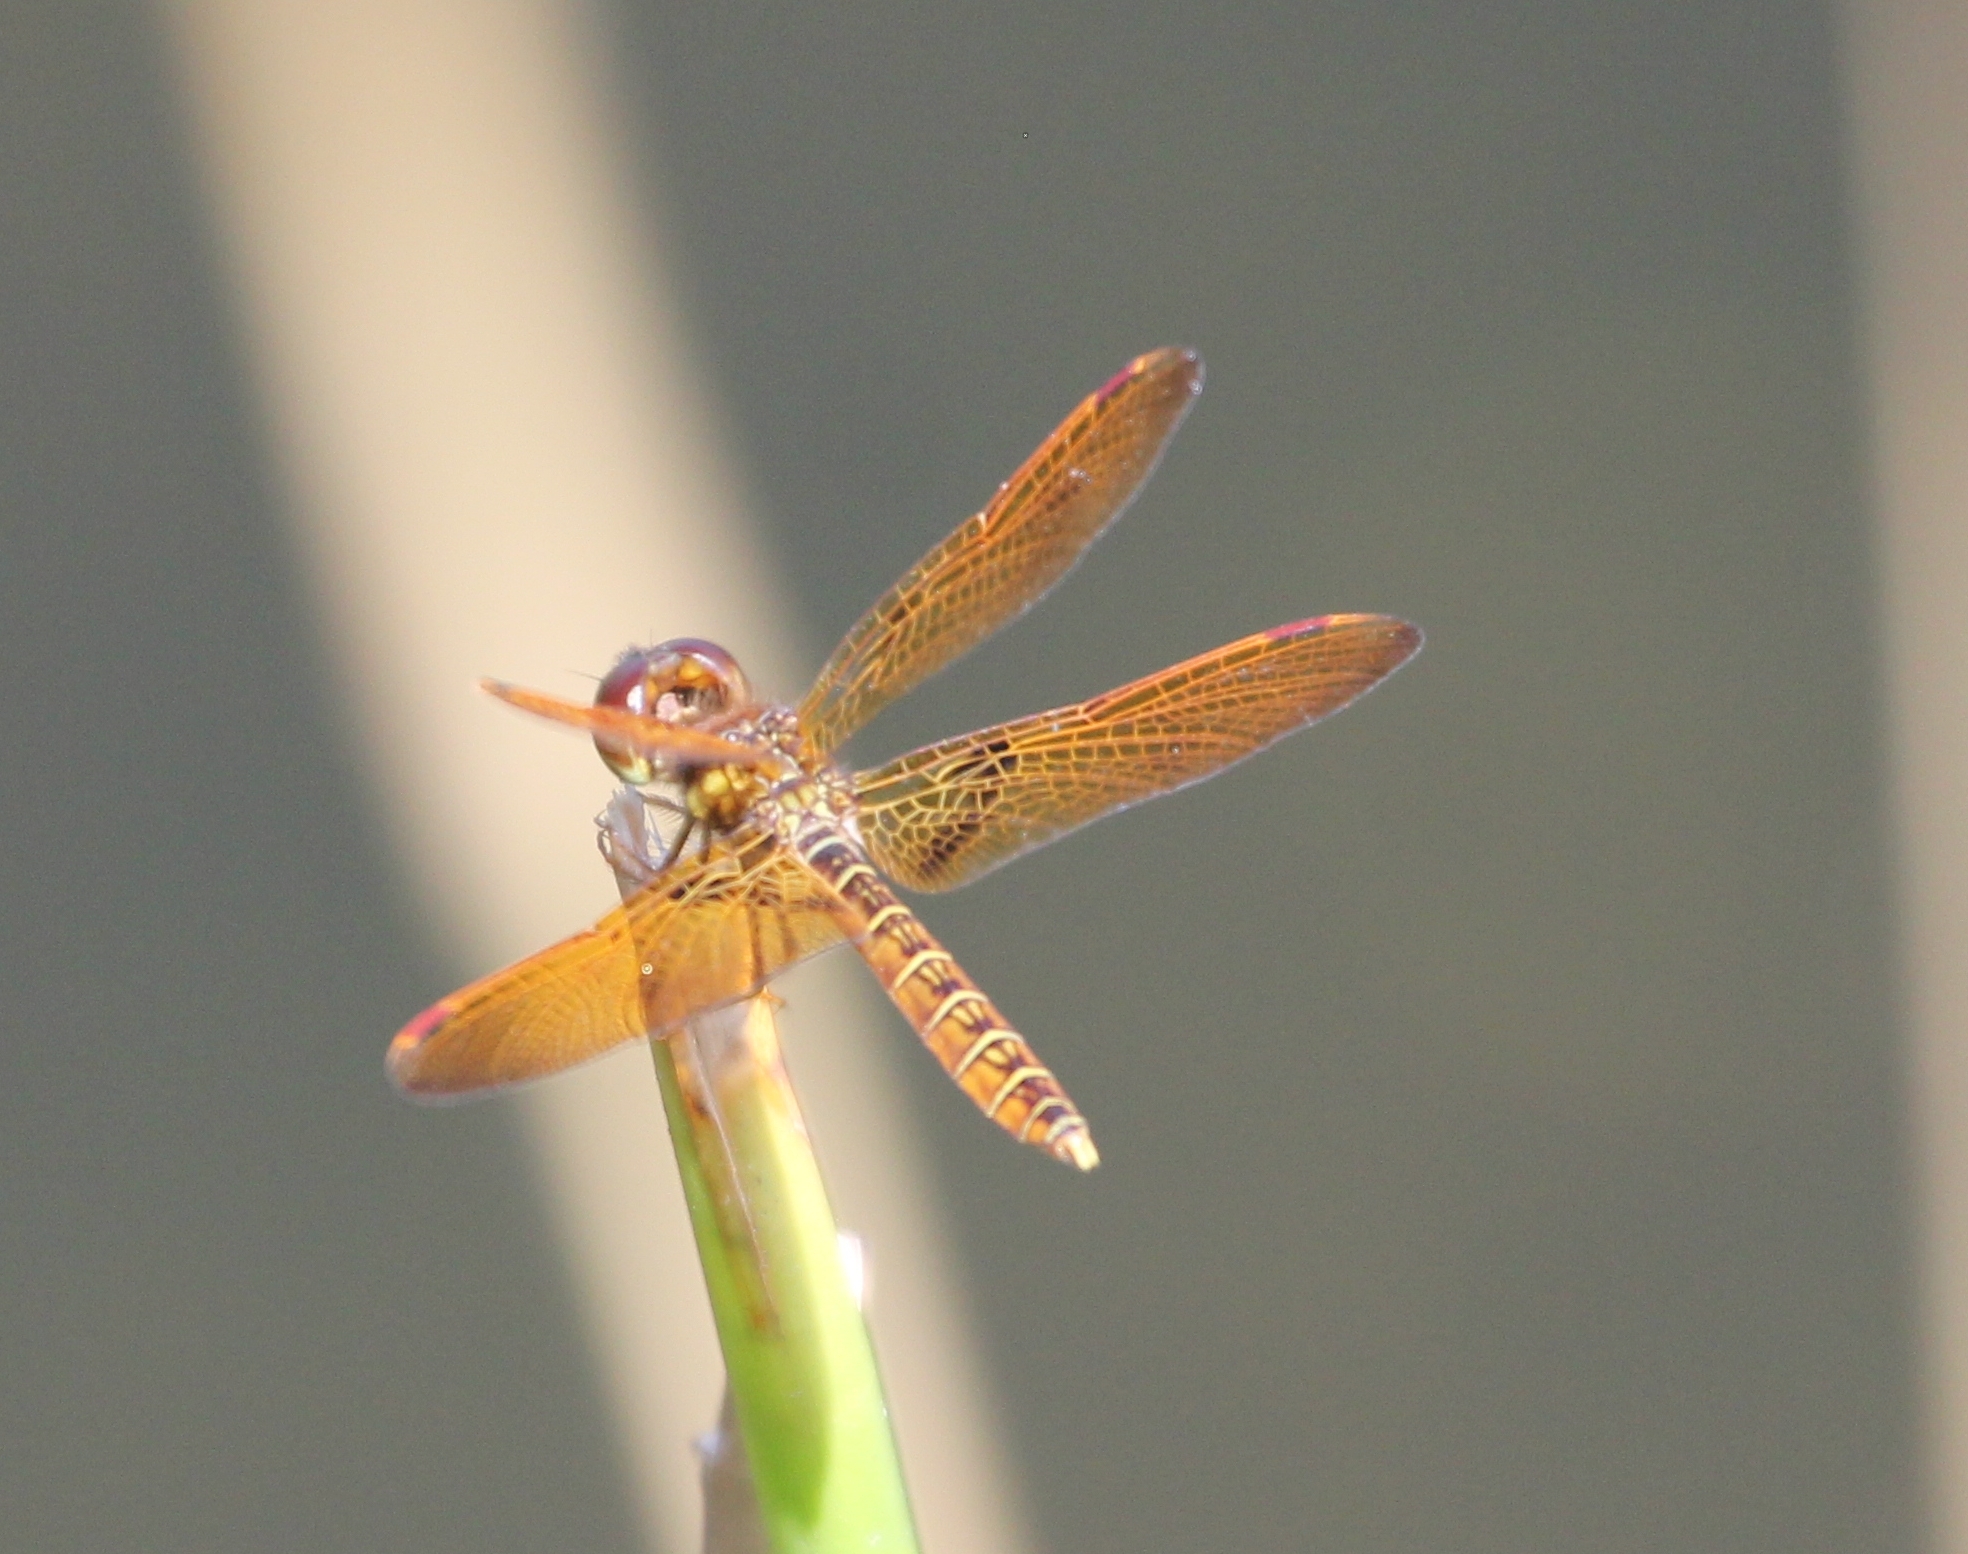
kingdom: Animalia
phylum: Arthropoda
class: Insecta
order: Odonata
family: Libellulidae
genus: Perithemis
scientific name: Perithemis tenera
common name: Eastern amberwing
